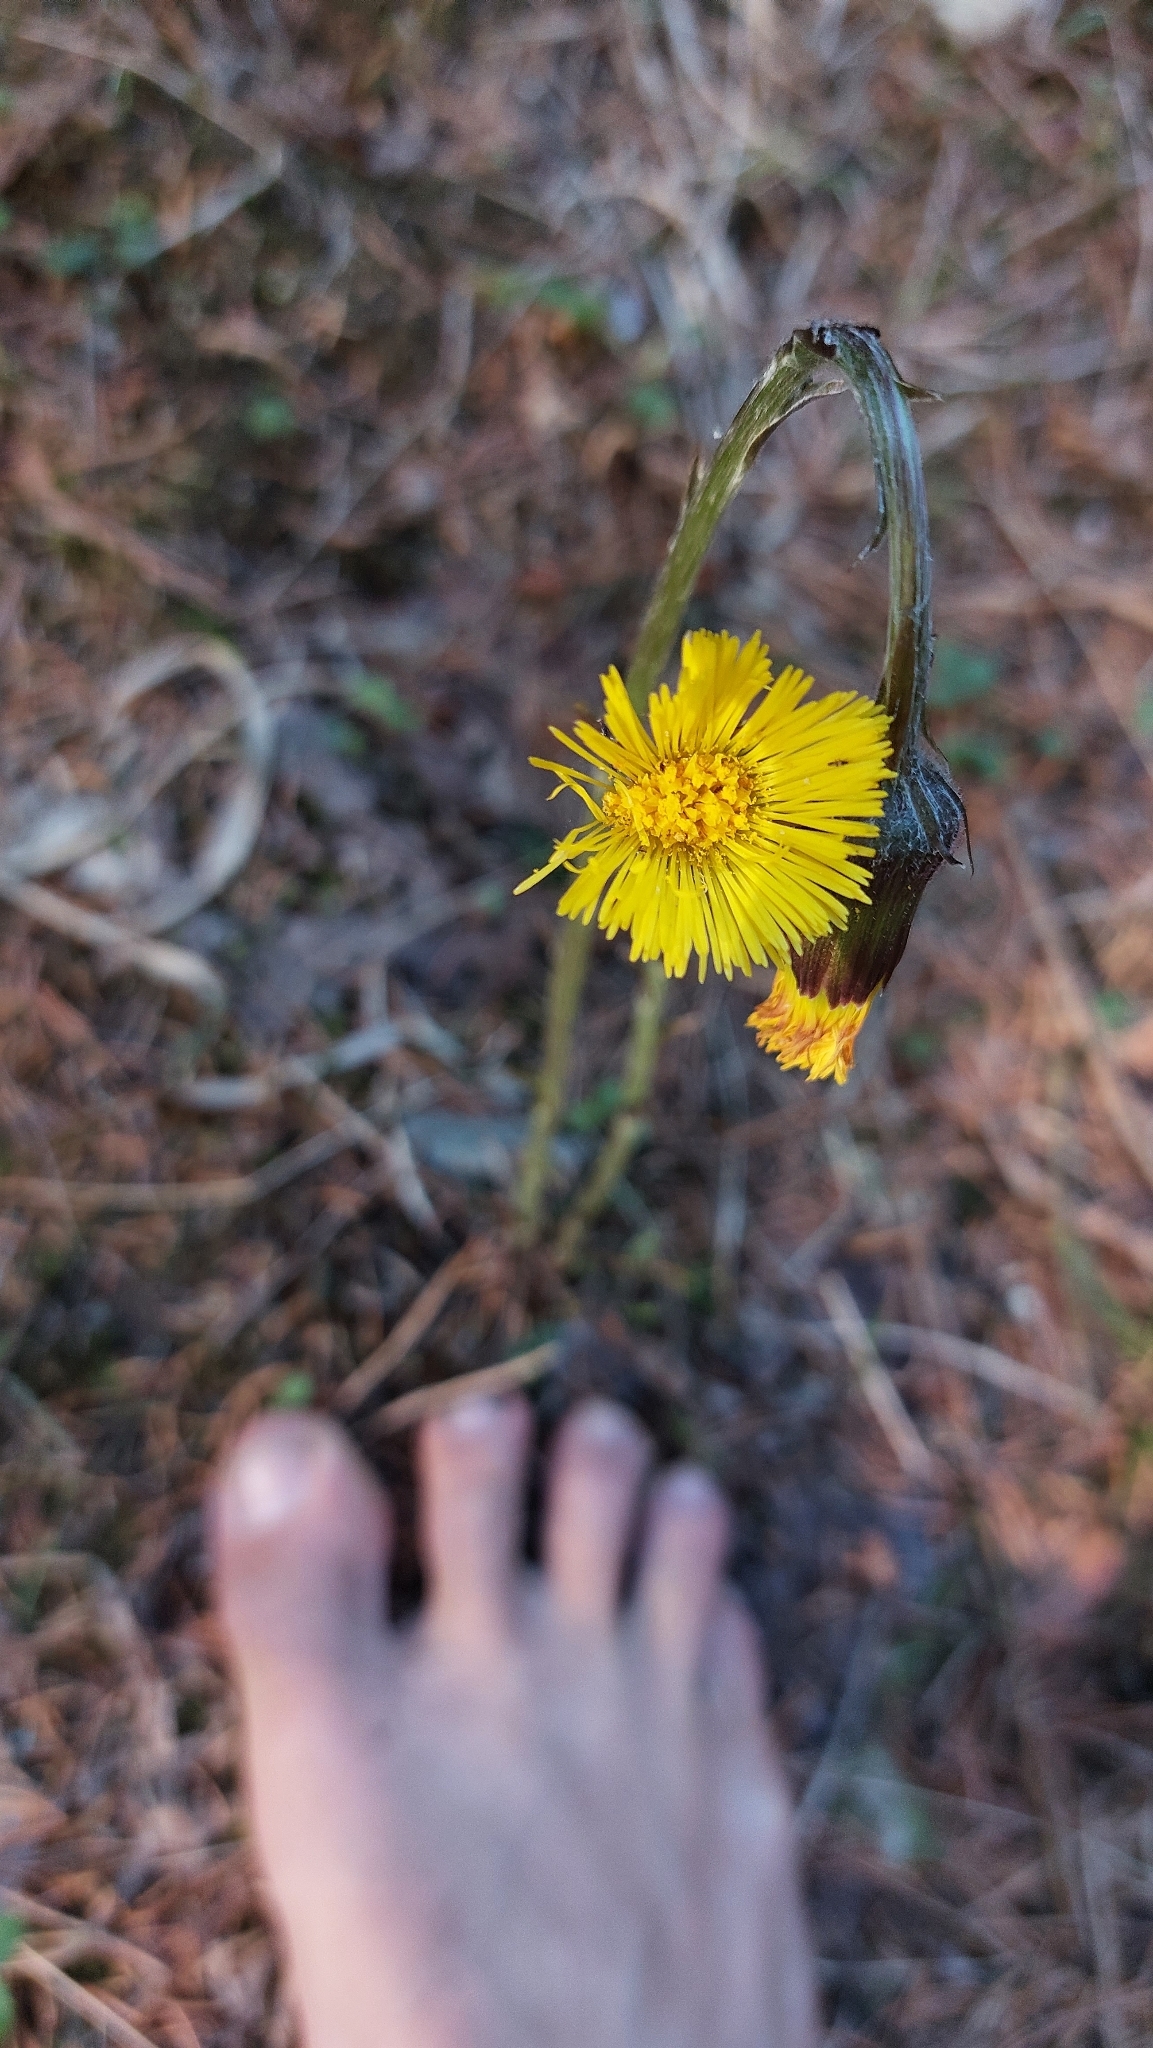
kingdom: Plantae
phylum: Tracheophyta
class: Magnoliopsida
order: Asterales
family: Asteraceae
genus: Tussilago
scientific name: Tussilago farfara
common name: Coltsfoot
